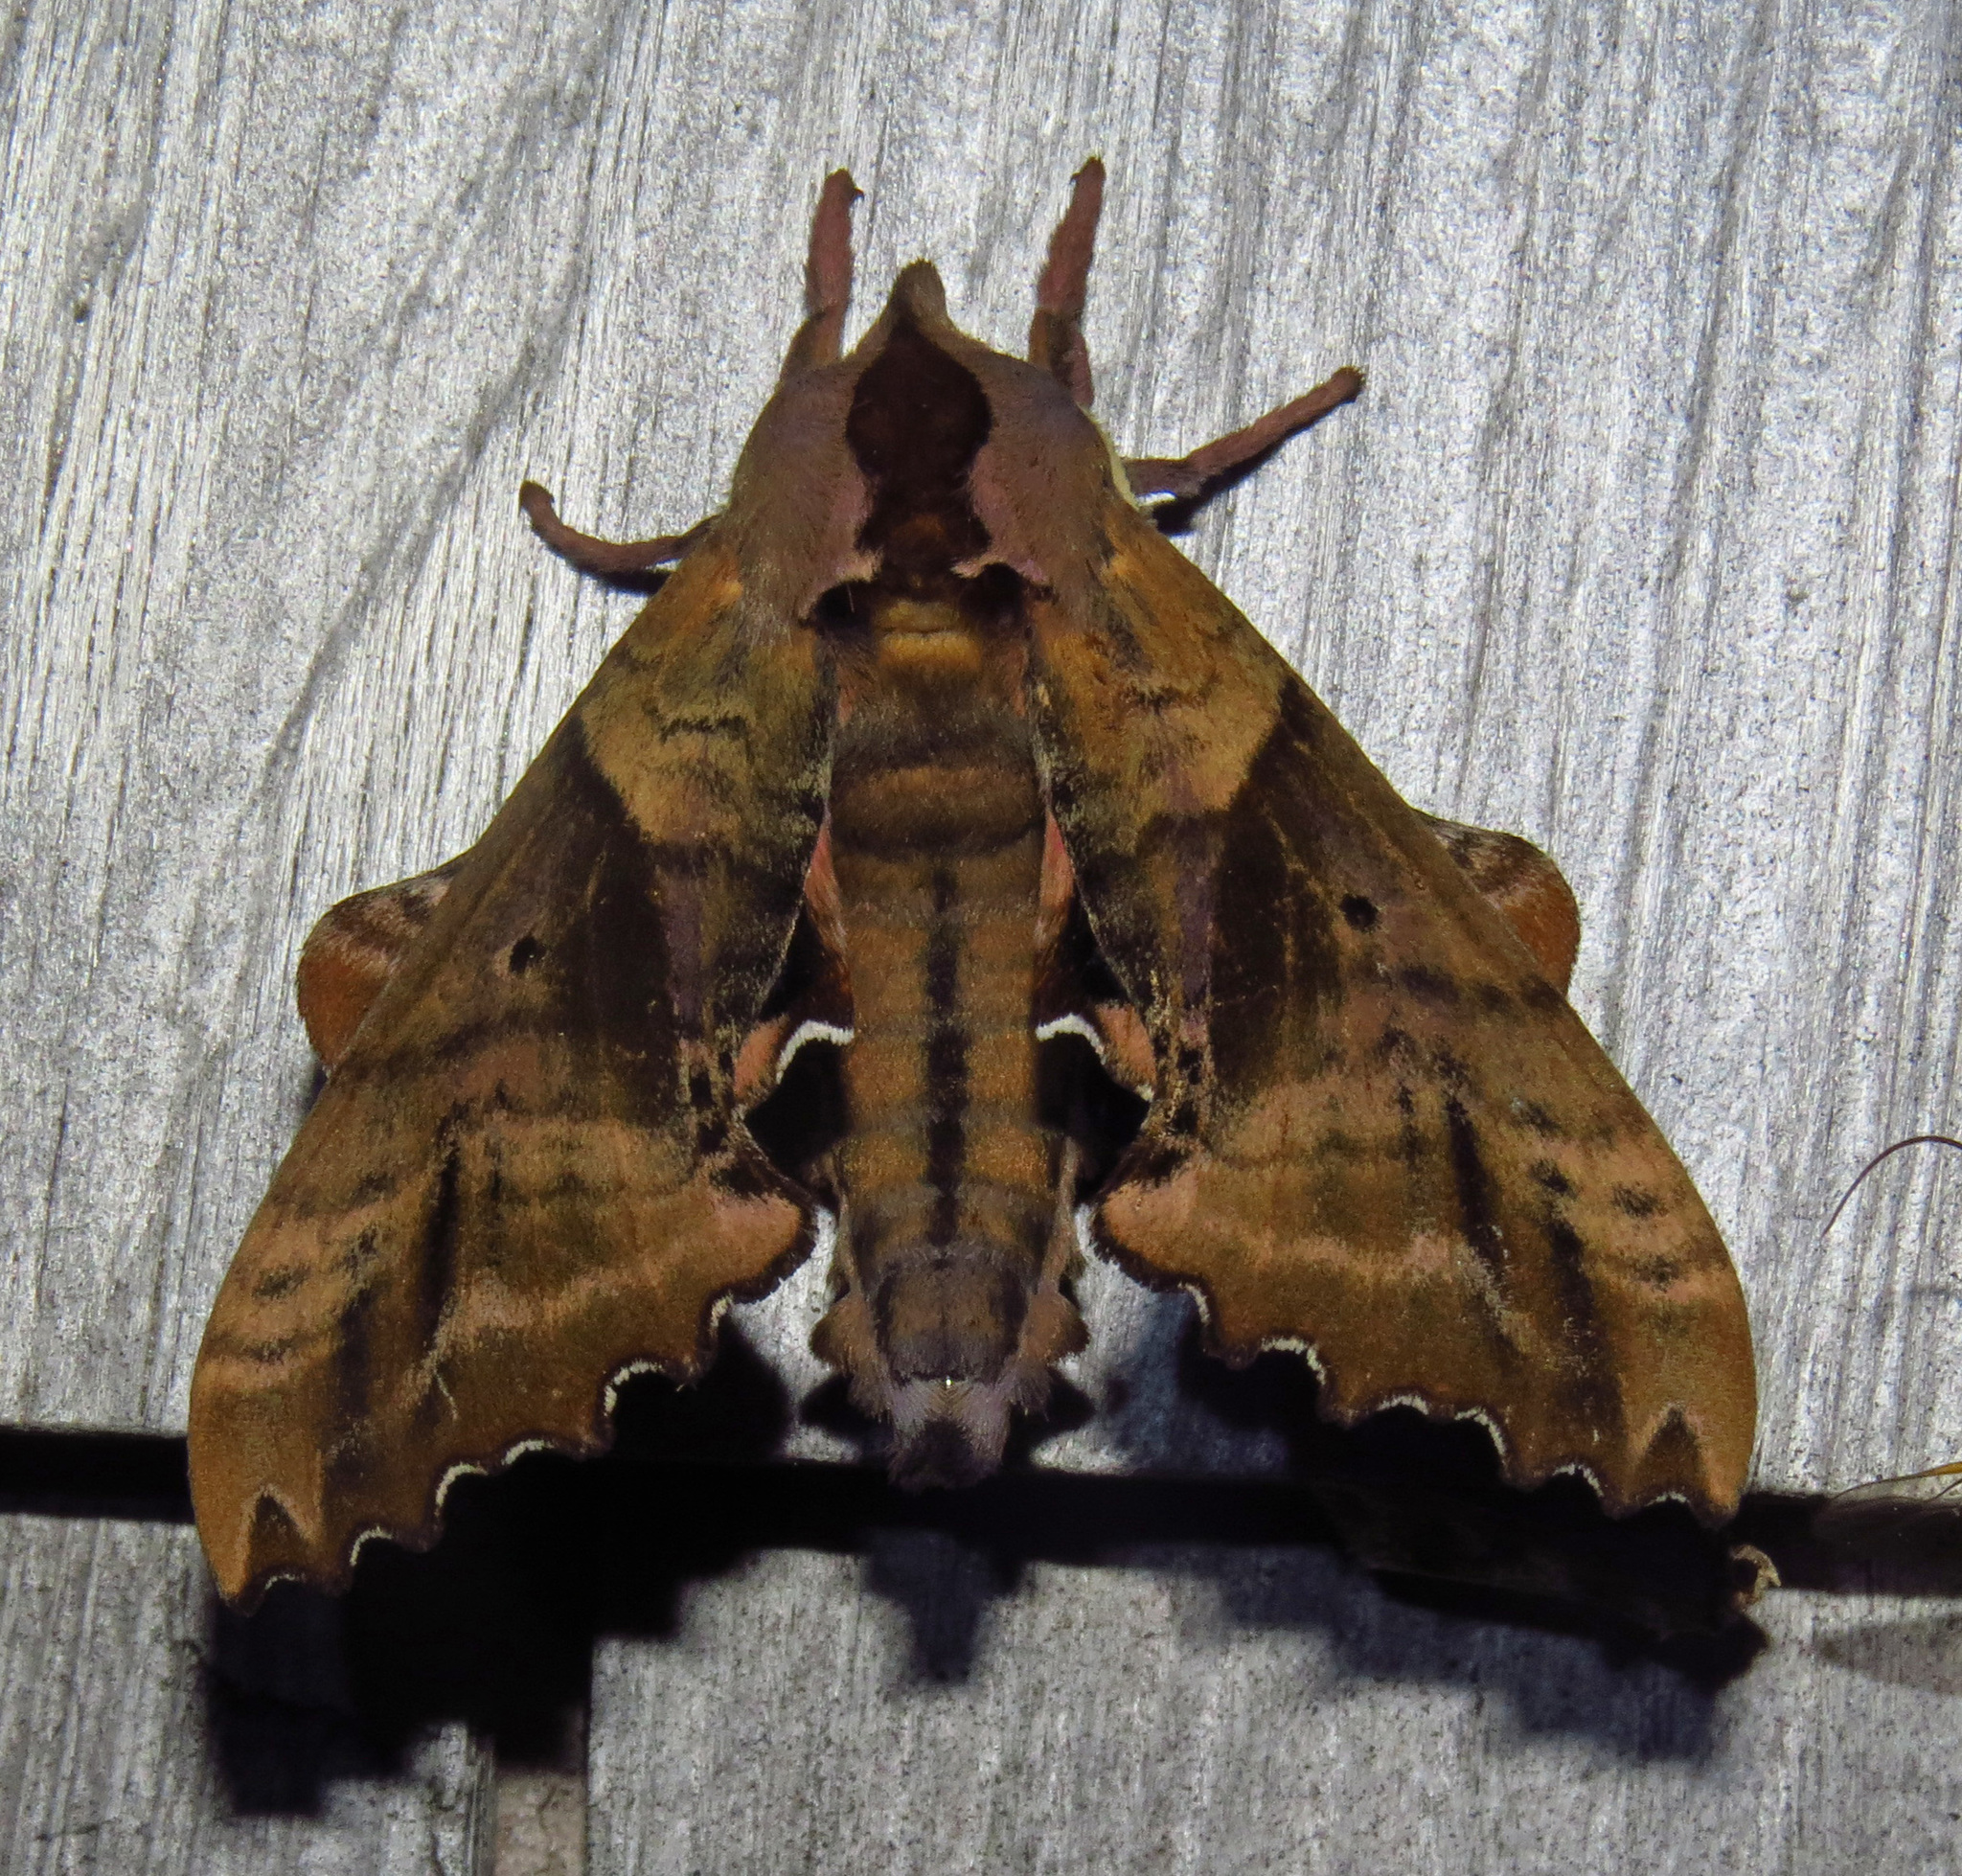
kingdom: Animalia
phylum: Arthropoda
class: Insecta
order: Lepidoptera
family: Sphingidae
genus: Paonias
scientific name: Paonias excaecata
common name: Blind-eyed sphinx
